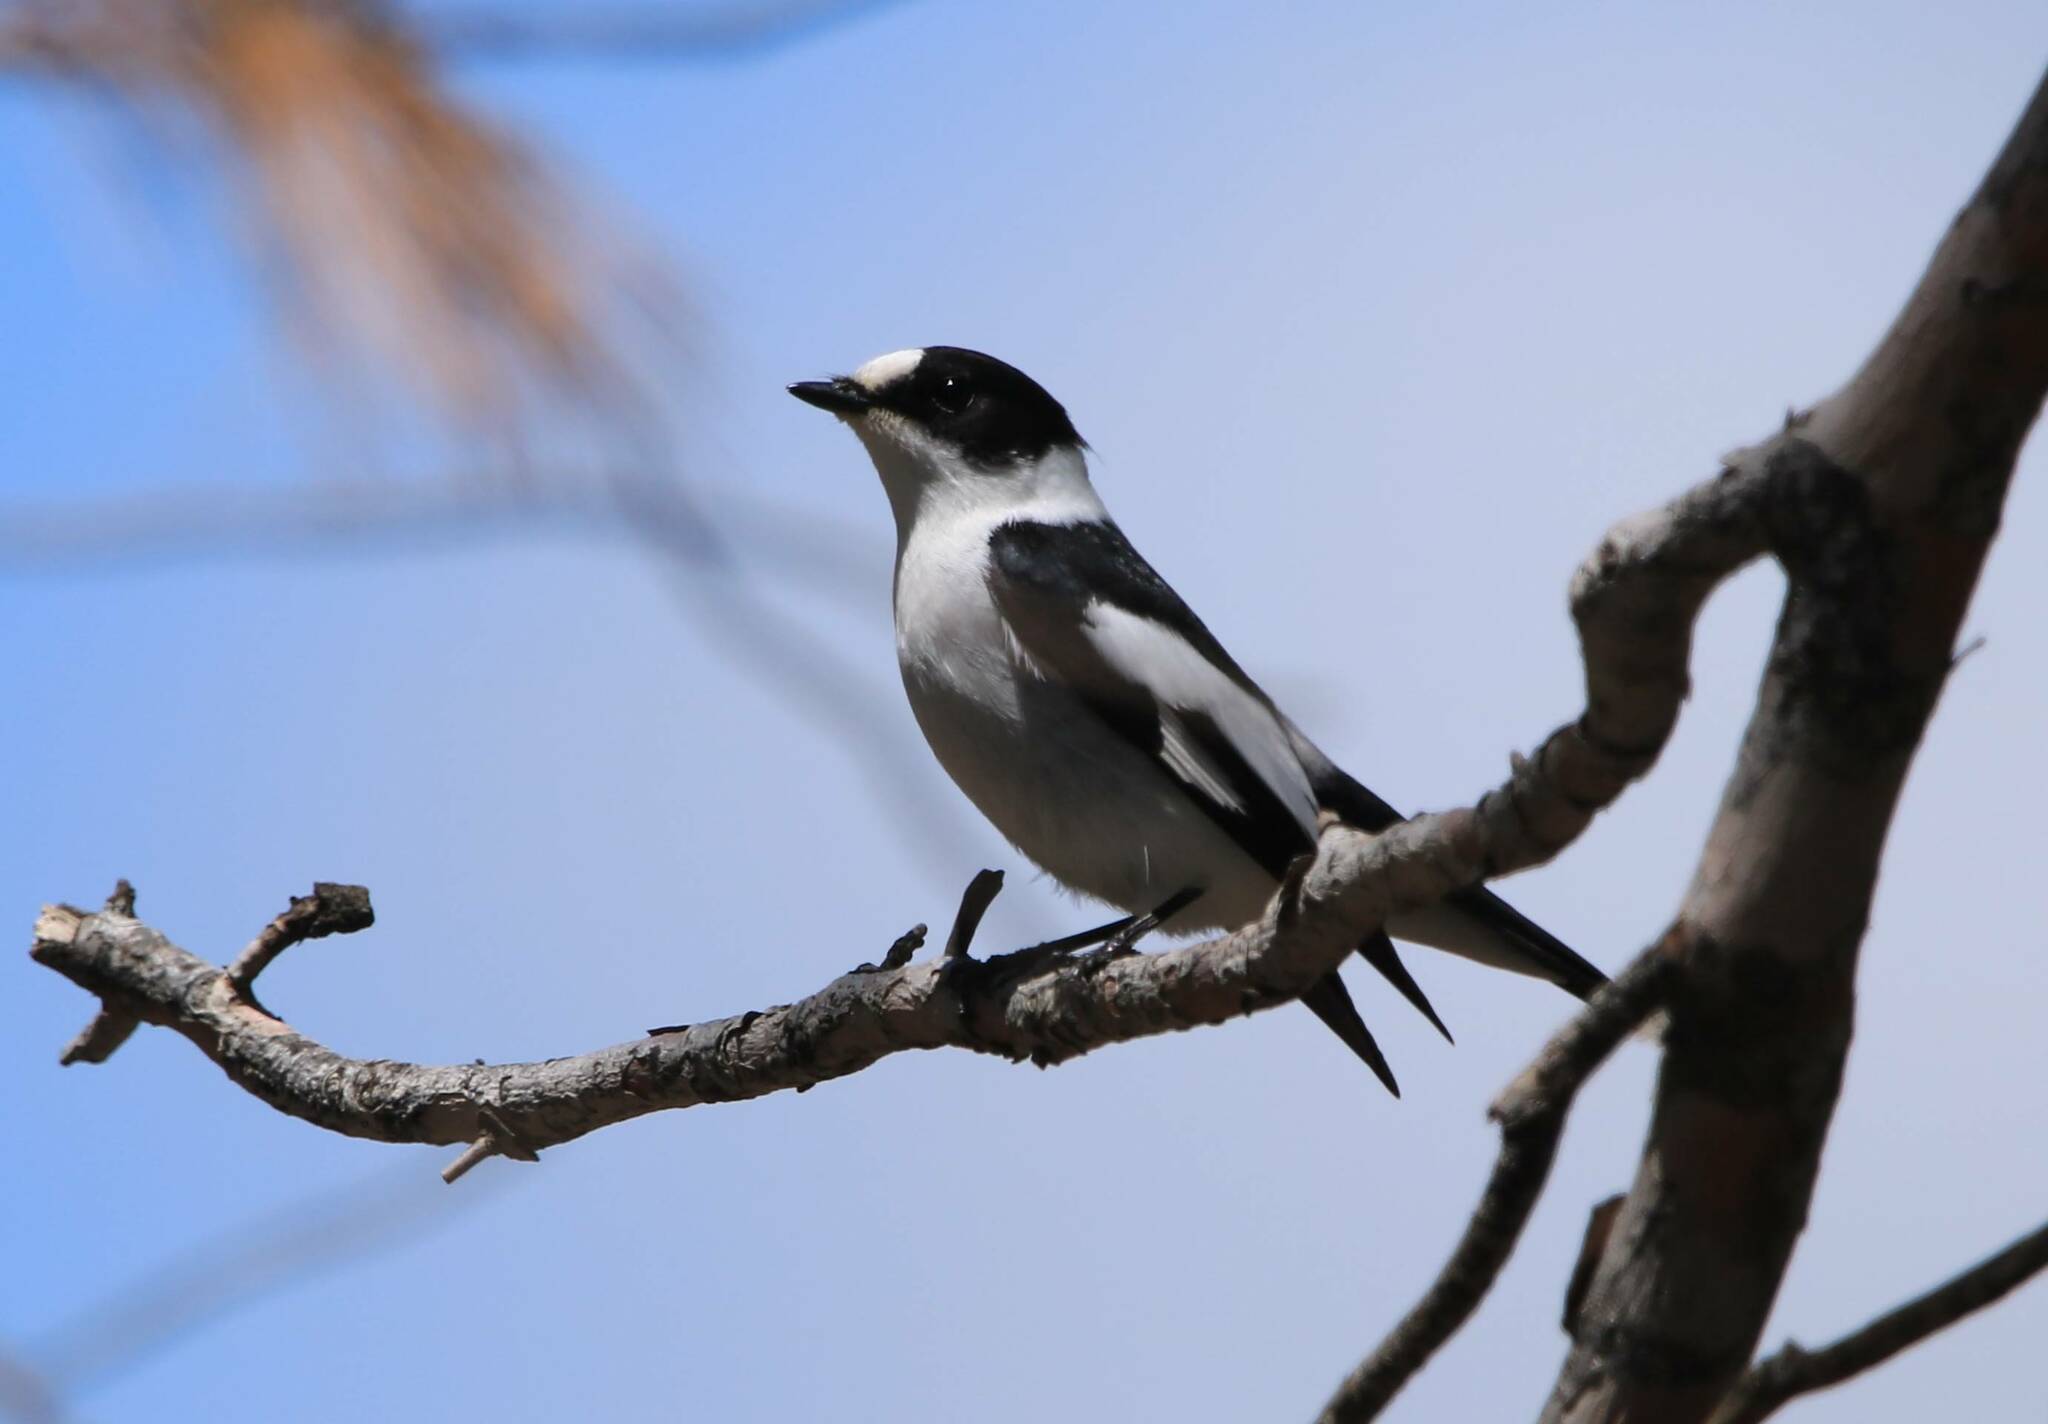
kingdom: Animalia
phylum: Chordata
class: Aves
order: Passeriformes
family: Muscicapidae
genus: Ficedula
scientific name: Ficedula albicollis
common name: Collared flycatcher
